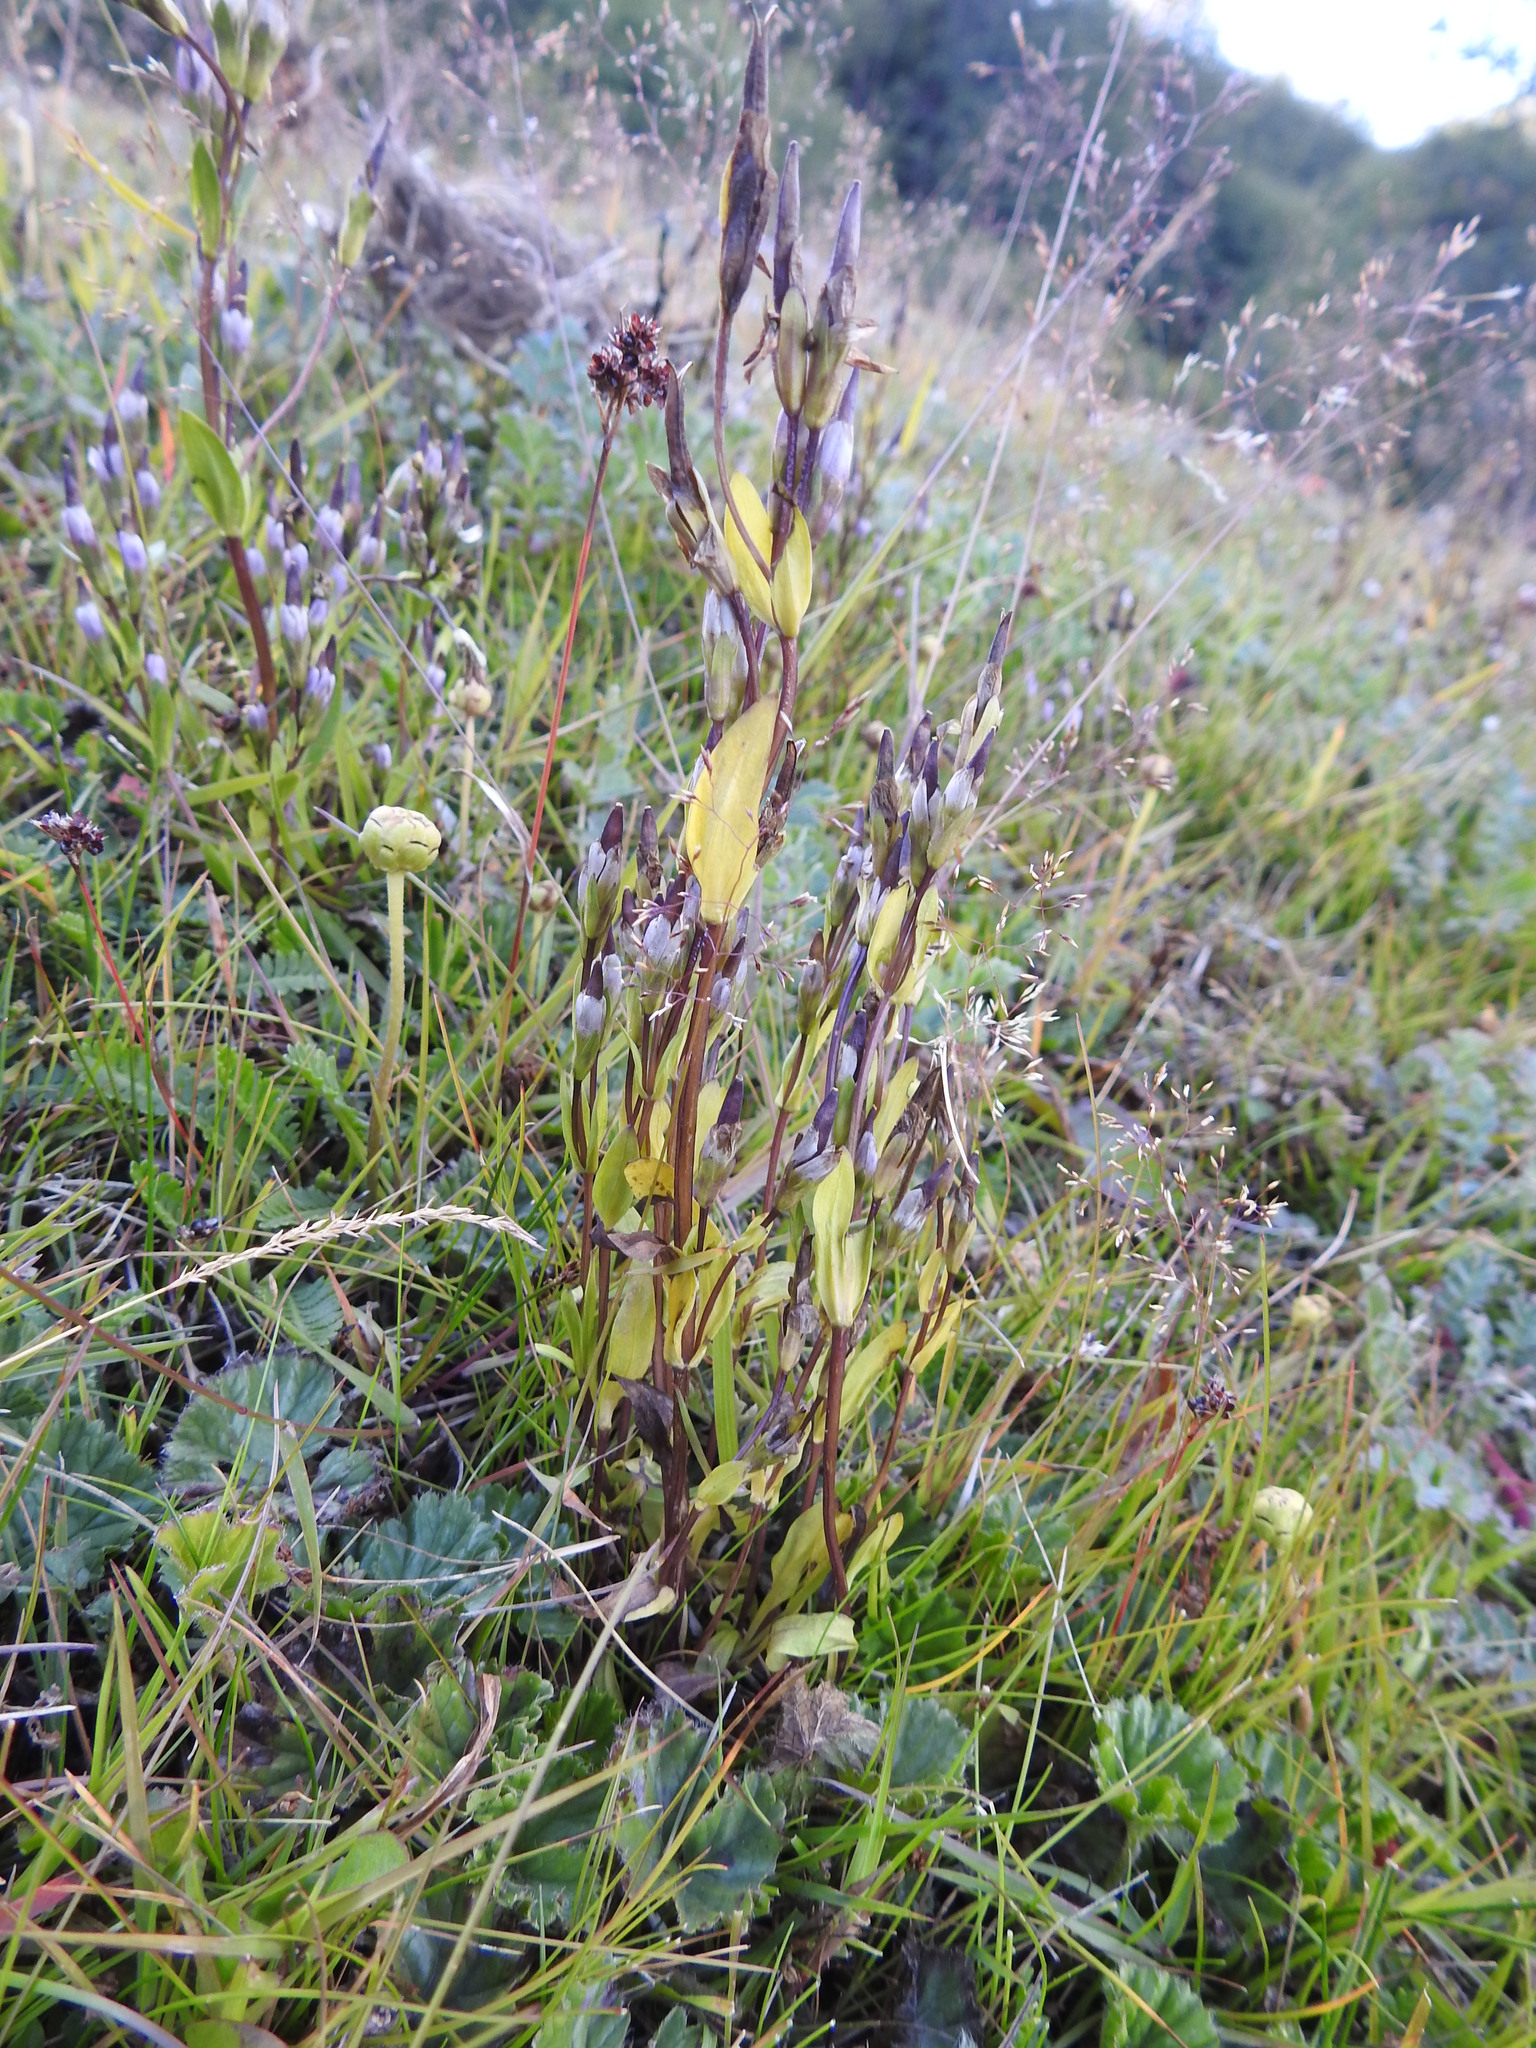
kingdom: Plantae
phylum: Tracheophyta
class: Magnoliopsida
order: Gentianales
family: Gentianaceae
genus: Gentianella
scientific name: Gentianella magellanica
